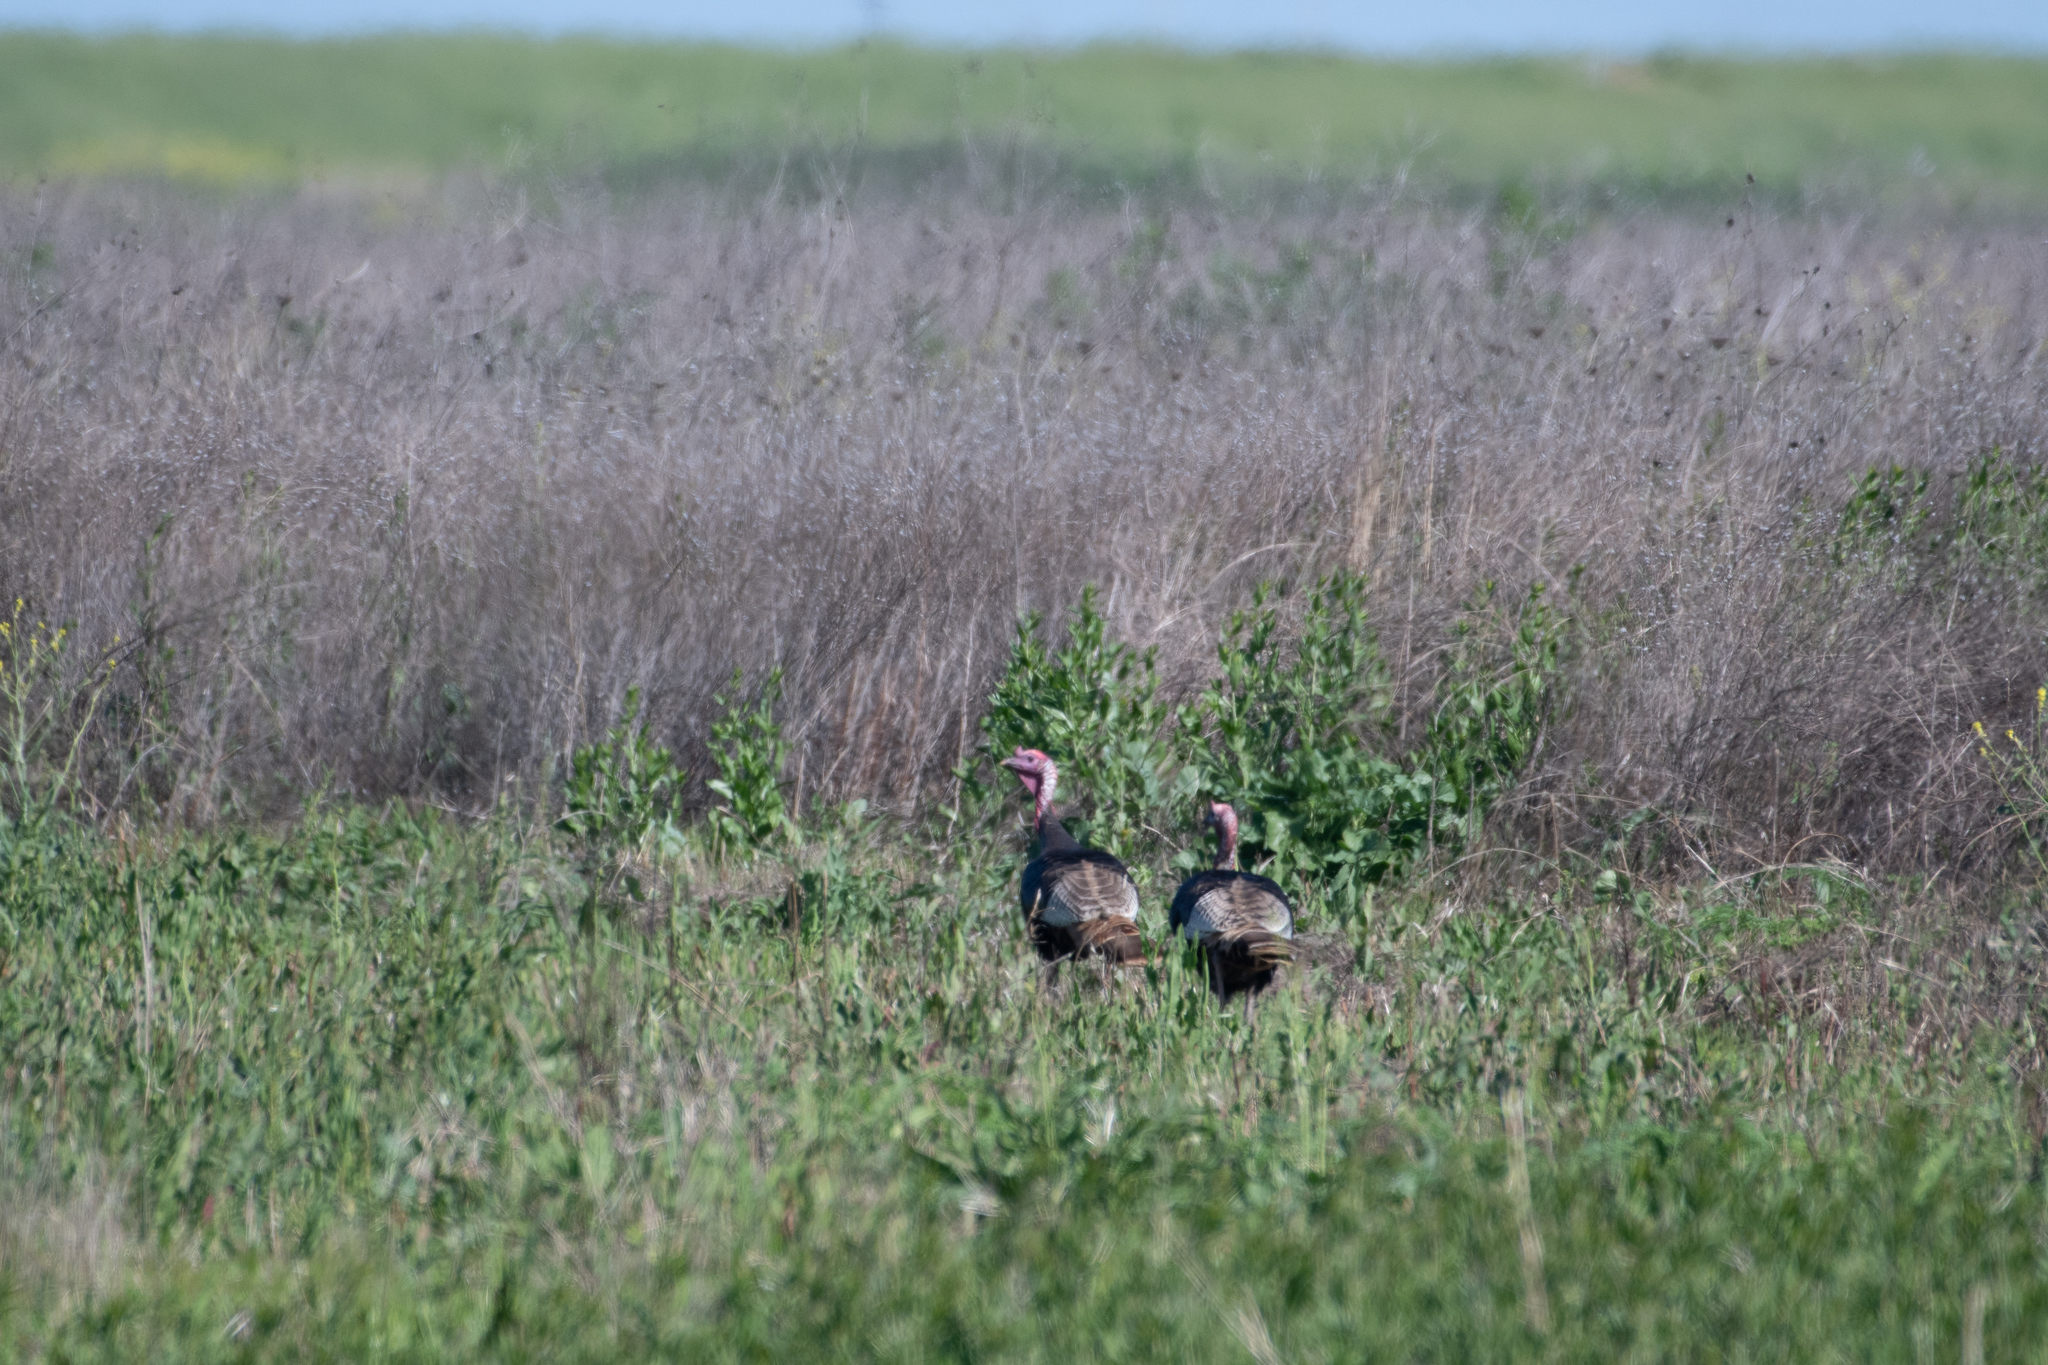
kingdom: Animalia
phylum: Chordata
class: Aves
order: Galliformes
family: Phasianidae
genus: Meleagris
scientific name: Meleagris gallopavo
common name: Wild turkey
